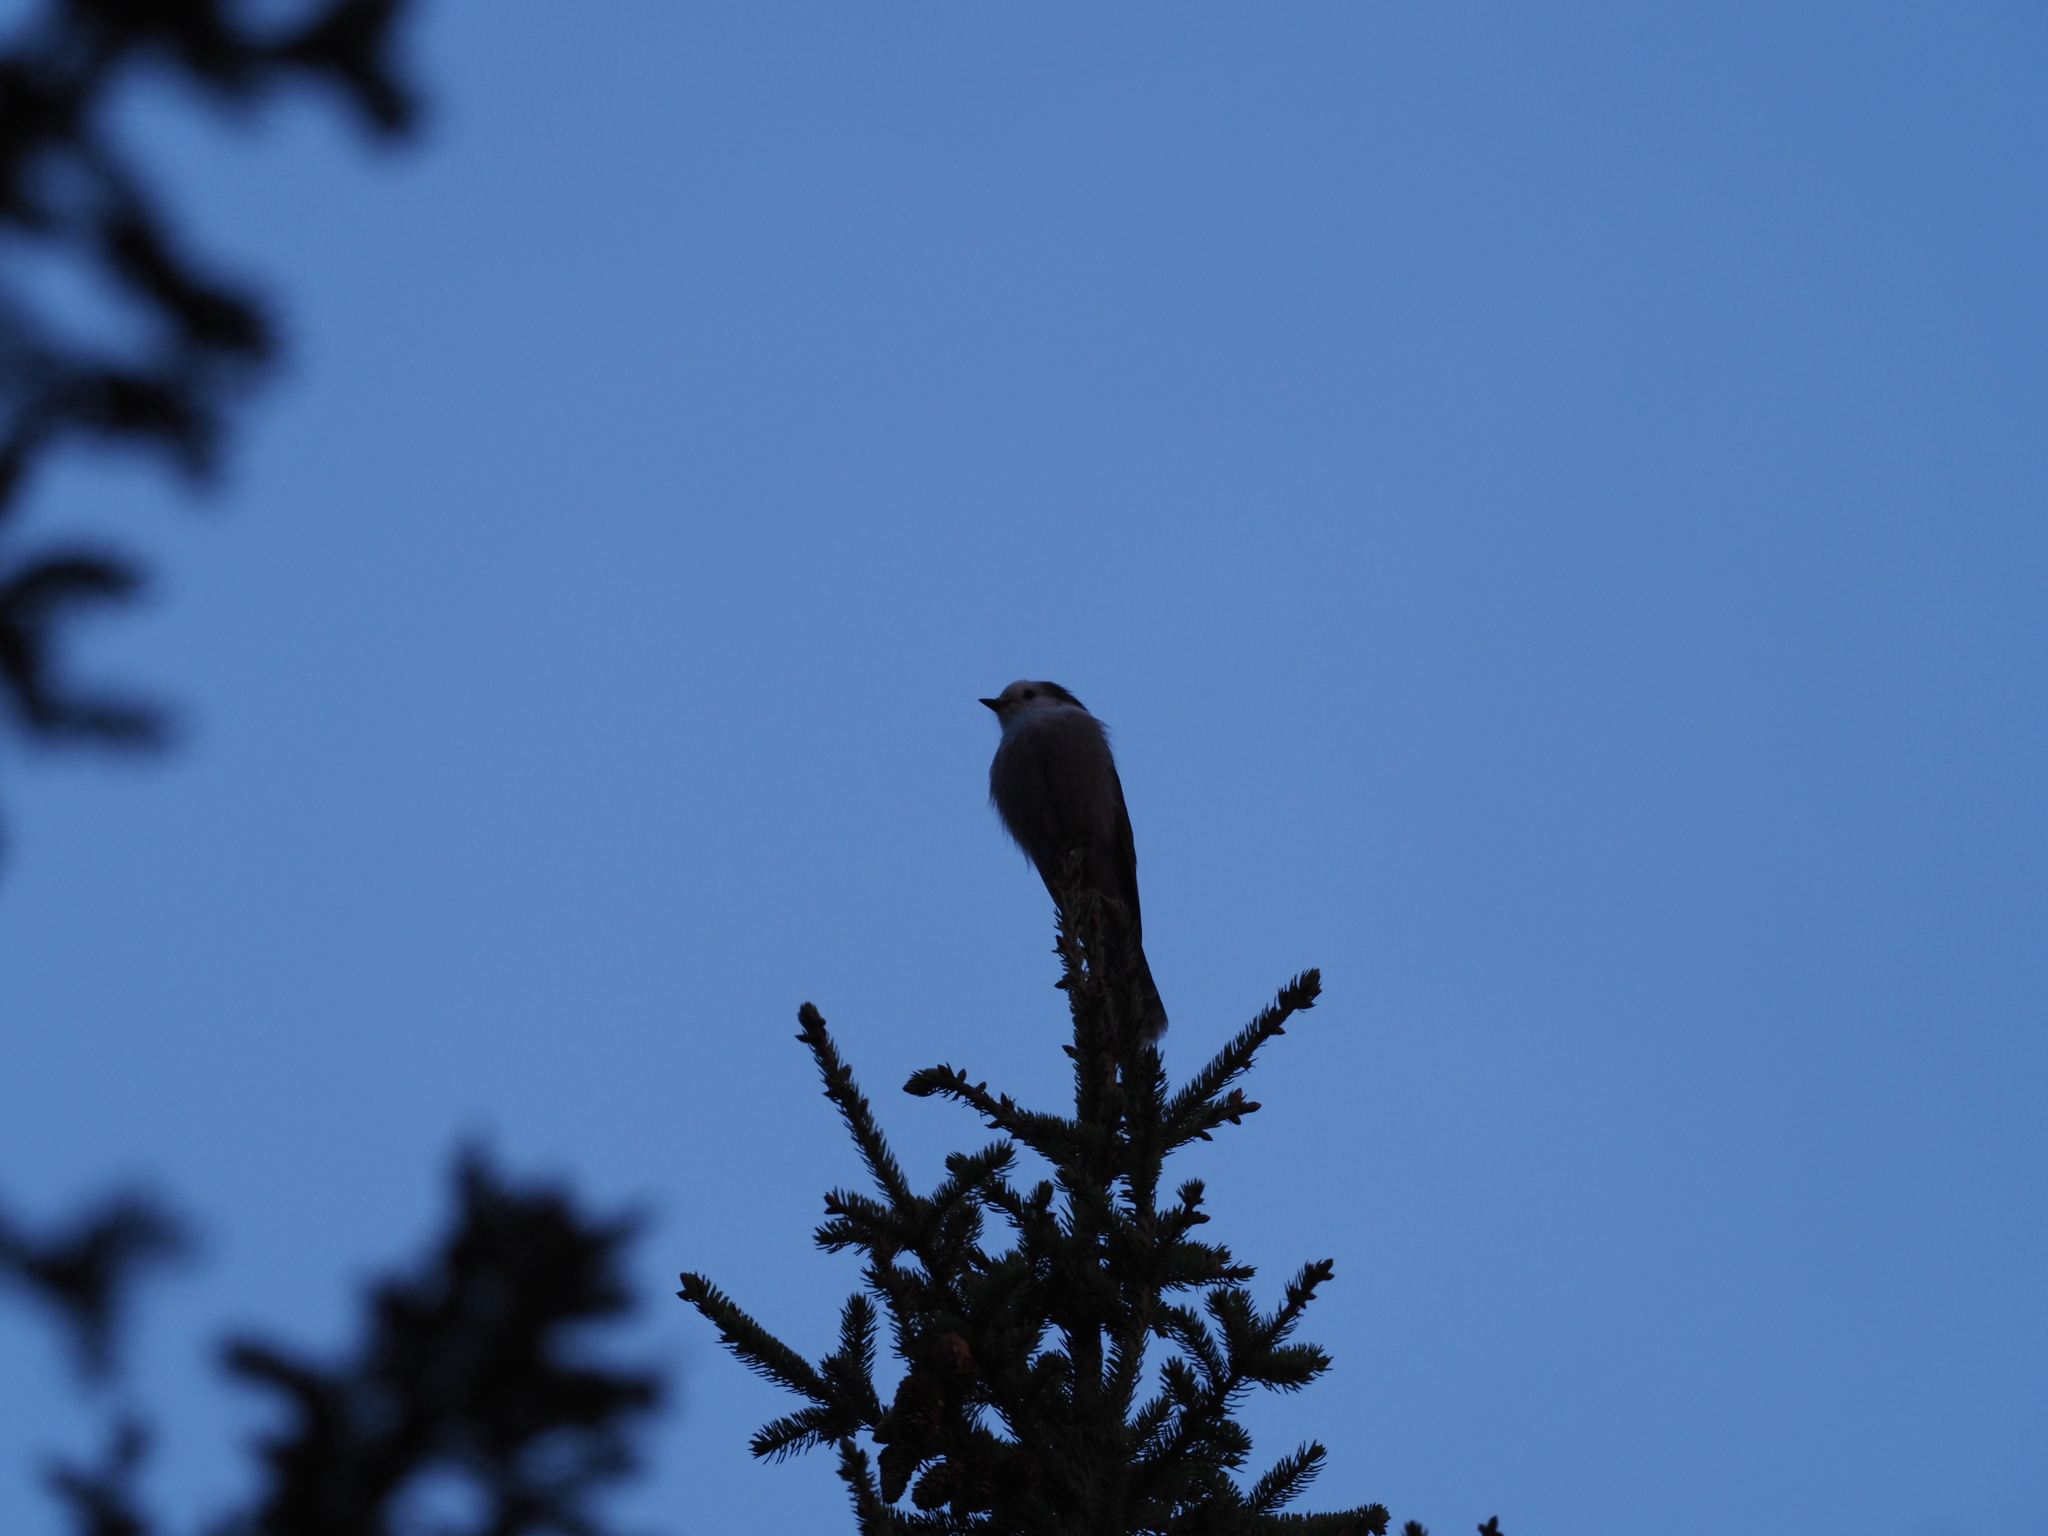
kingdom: Animalia
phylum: Chordata
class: Aves
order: Passeriformes
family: Corvidae
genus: Perisoreus
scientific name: Perisoreus canadensis
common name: Gray jay
